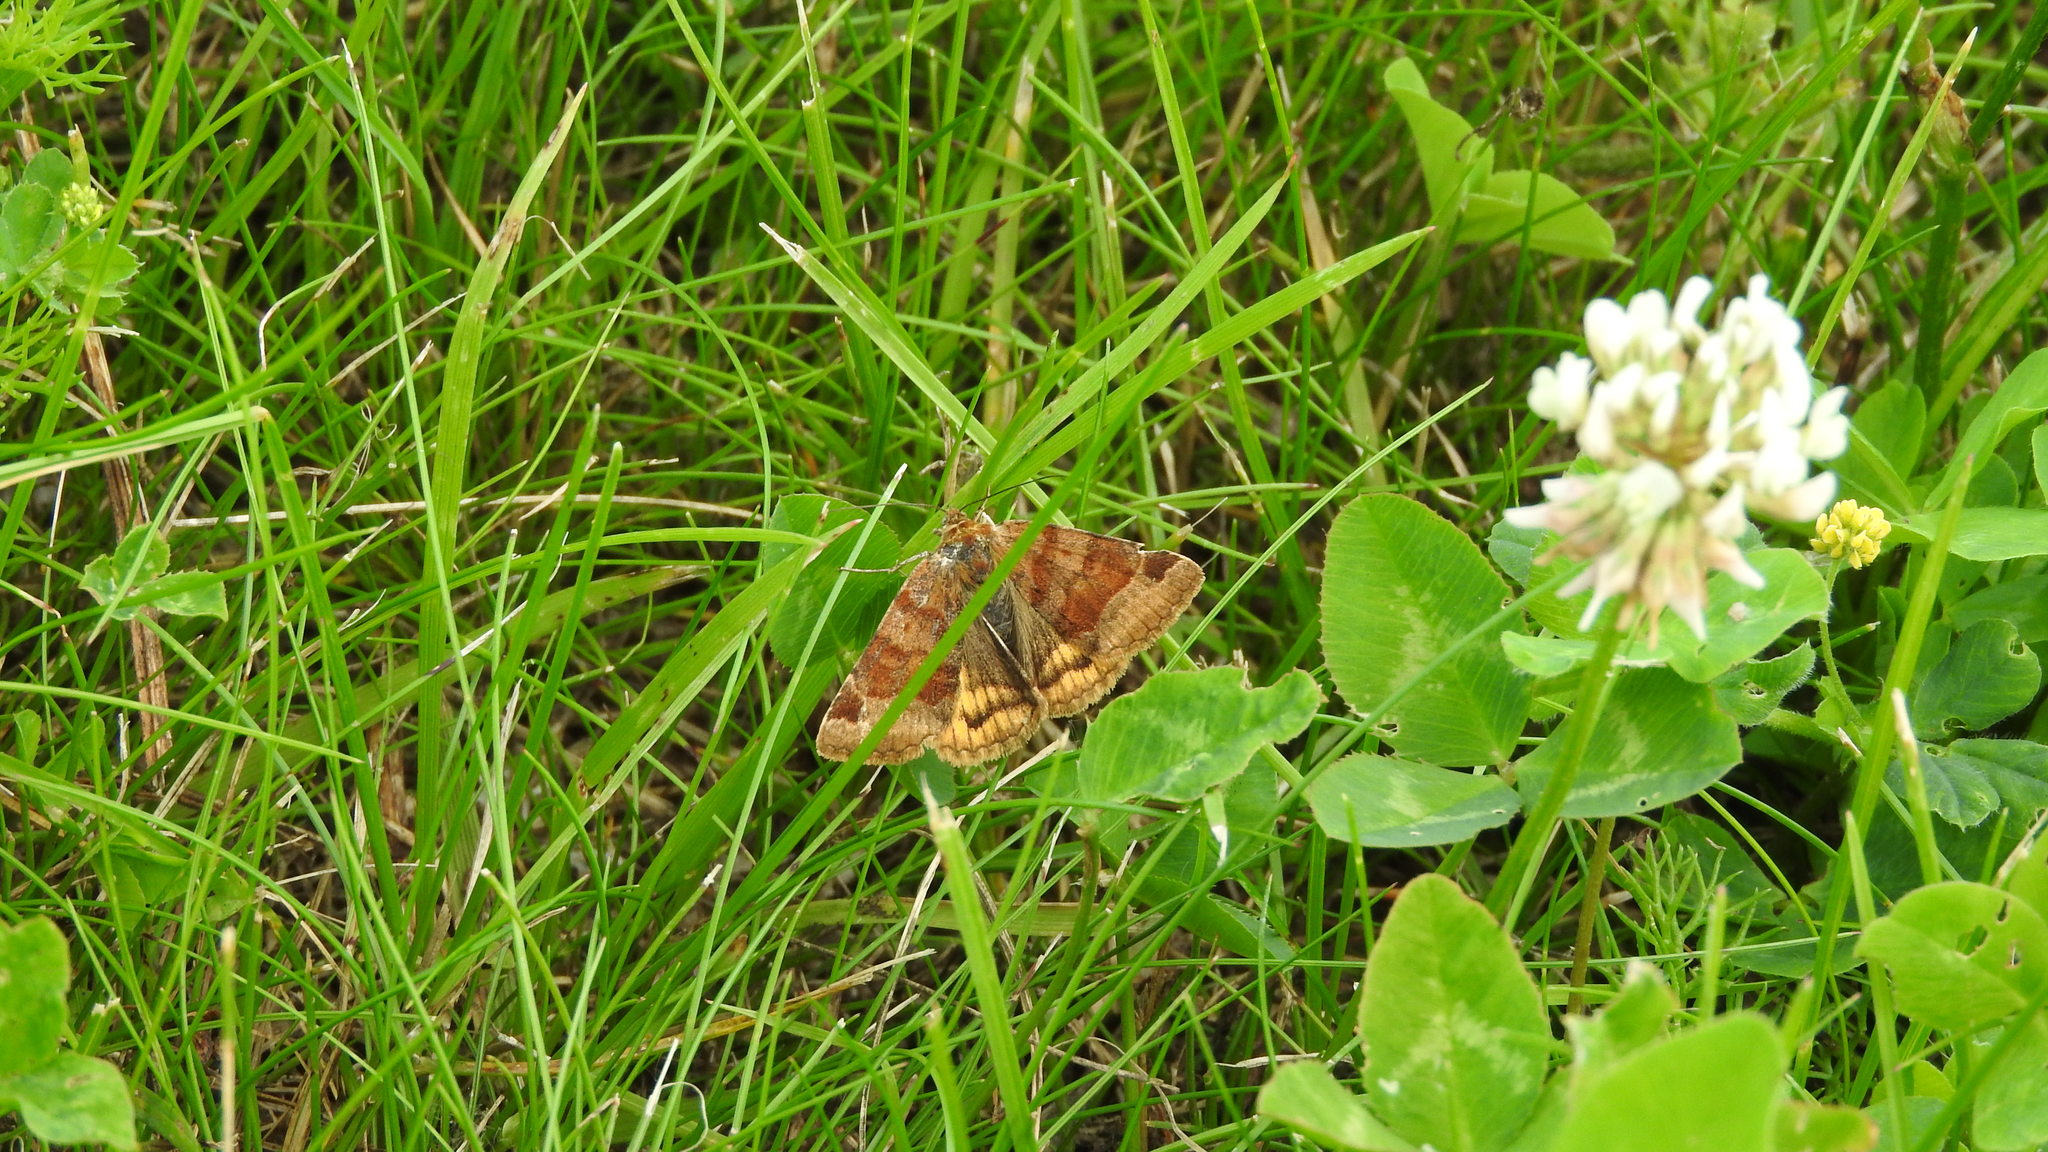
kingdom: Animalia
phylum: Arthropoda
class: Insecta
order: Lepidoptera
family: Erebidae
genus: Euclidia
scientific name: Euclidia glyphica
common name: Burnet companion
